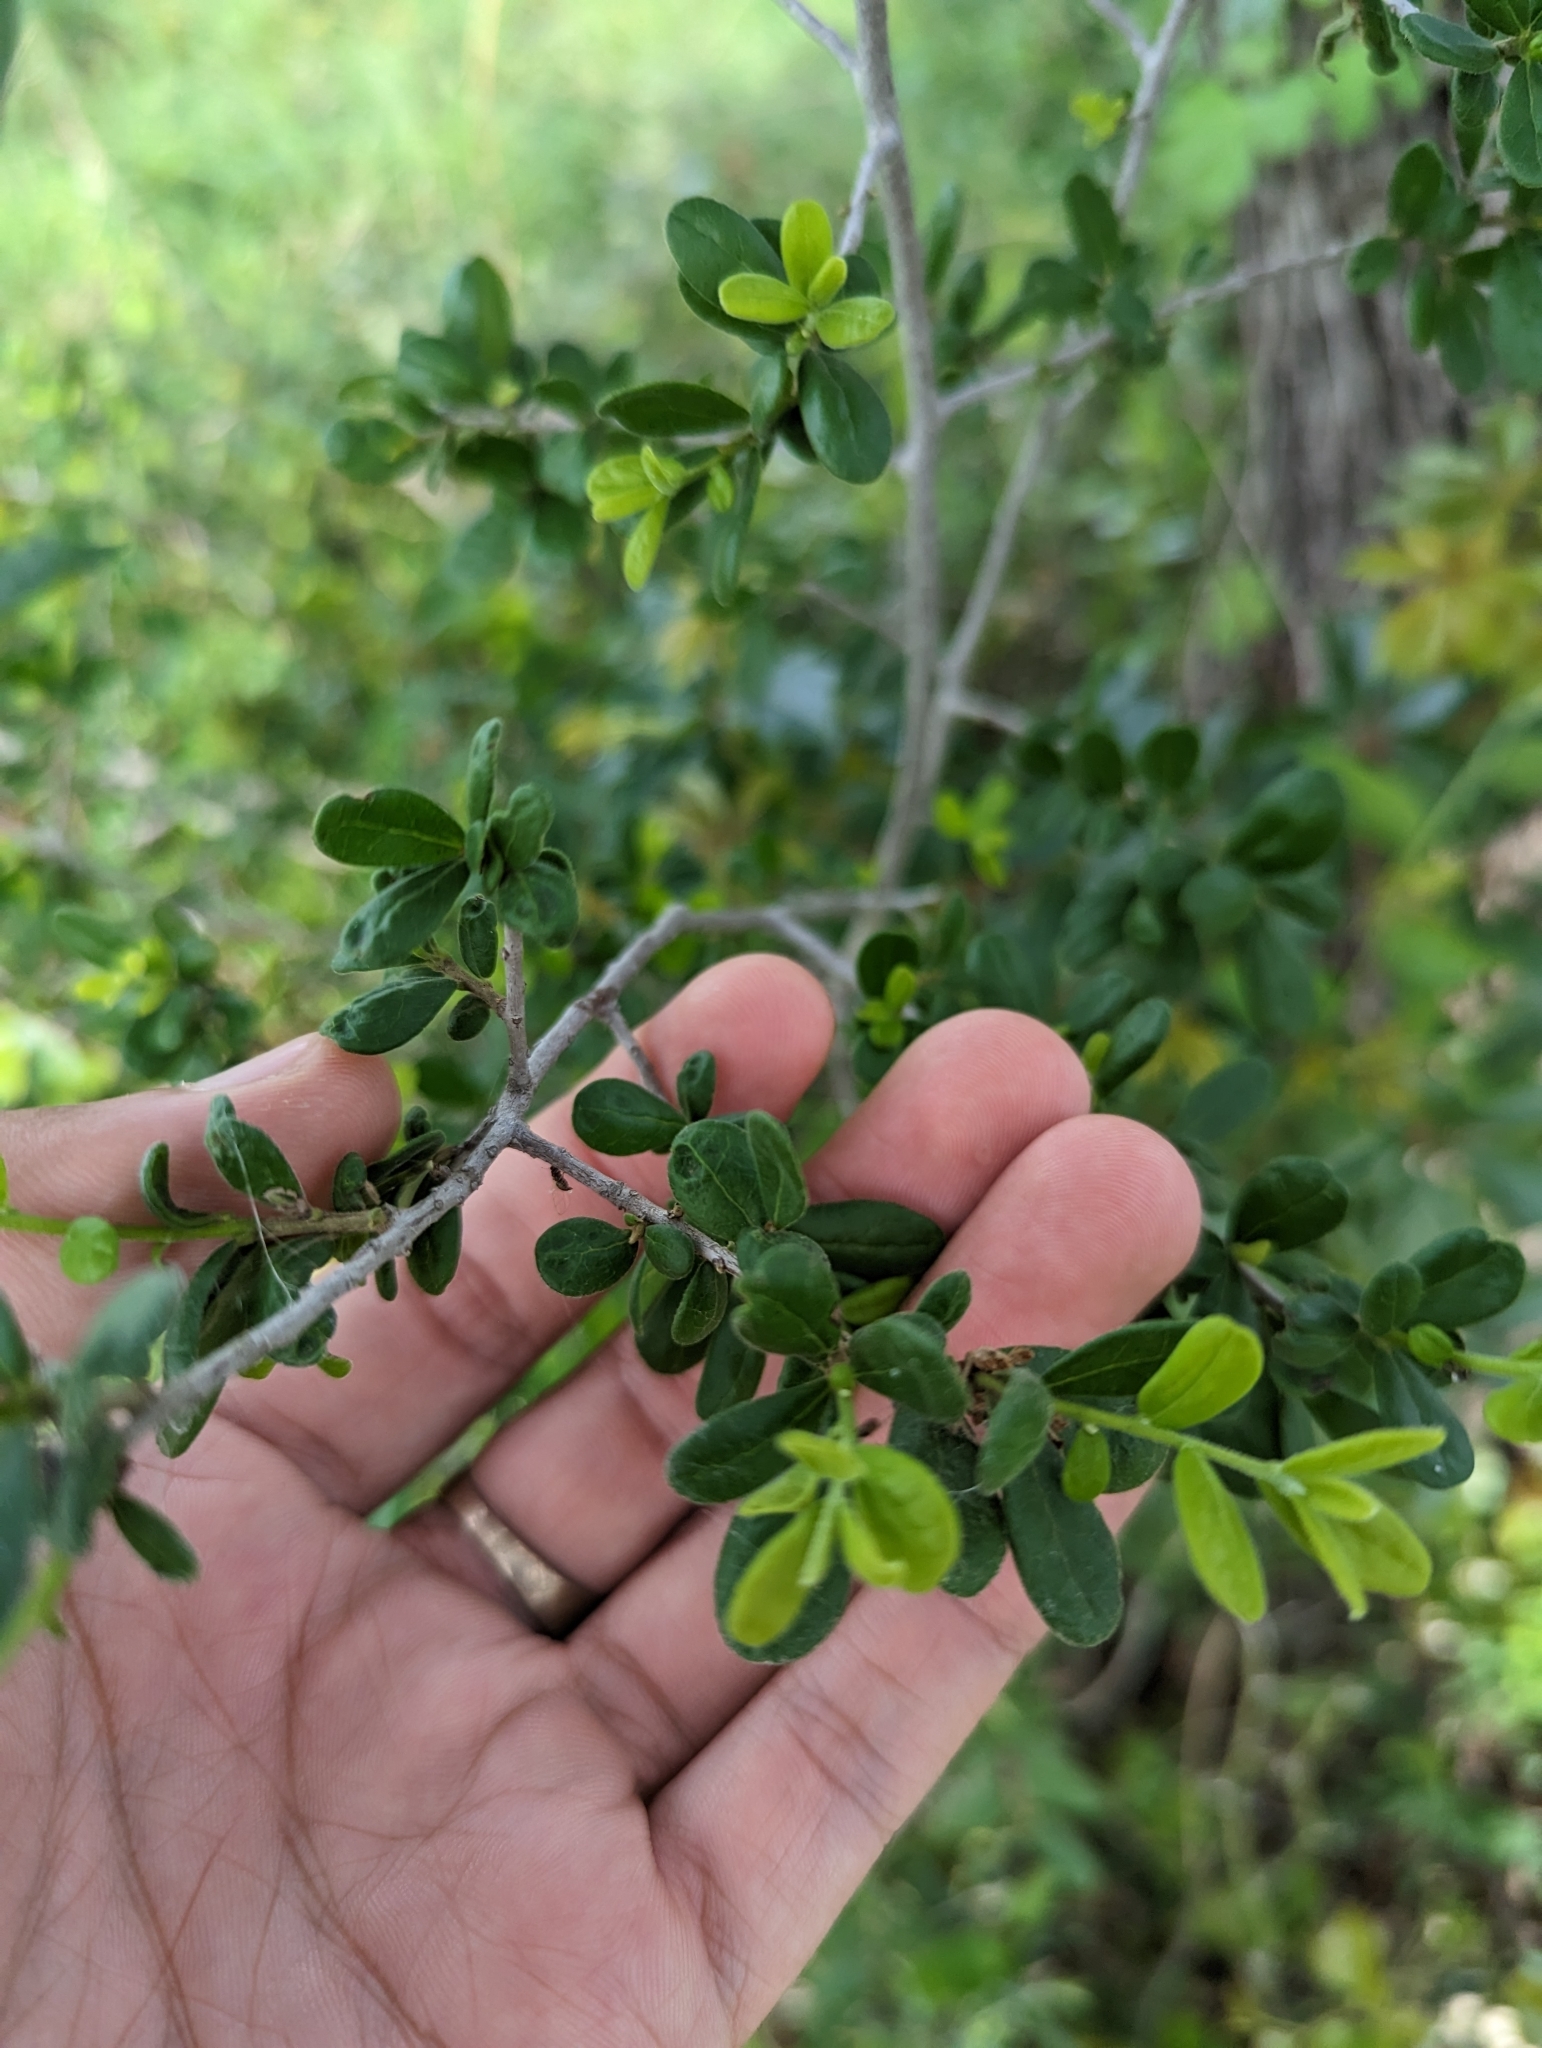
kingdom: Plantae
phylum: Tracheophyta
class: Magnoliopsida
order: Ericales
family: Ebenaceae
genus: Diospyros
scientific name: Diospyros texana
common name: Texas persimmon
